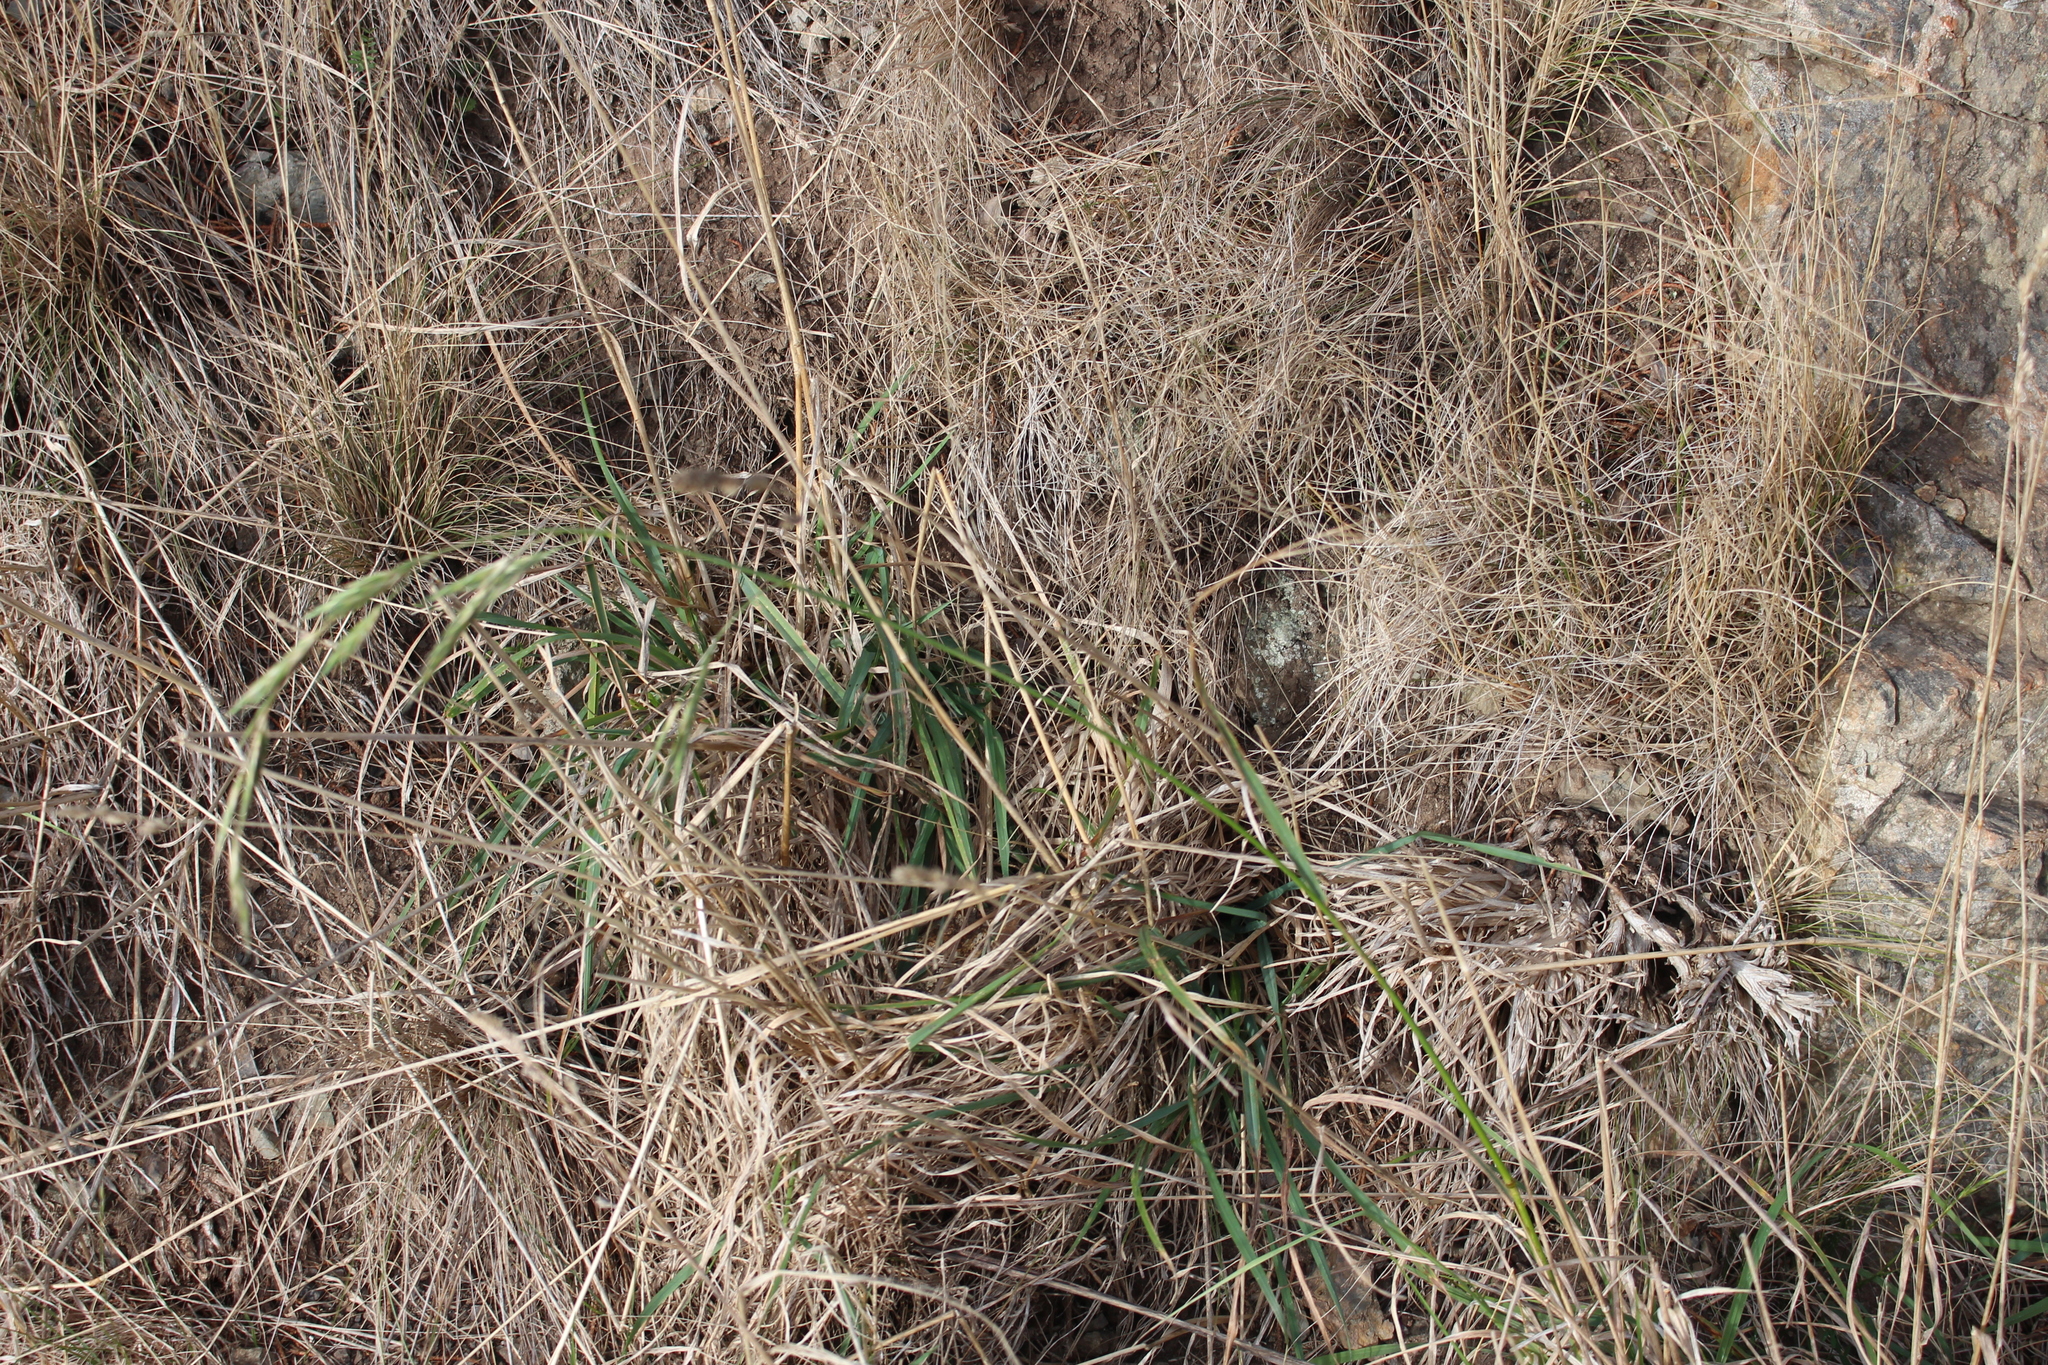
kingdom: Plantae
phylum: Tracheophyta
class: Liliopsida
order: Poales
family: Poaceae
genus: Bromus
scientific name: Bromus lithobius
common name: Chilean brome
